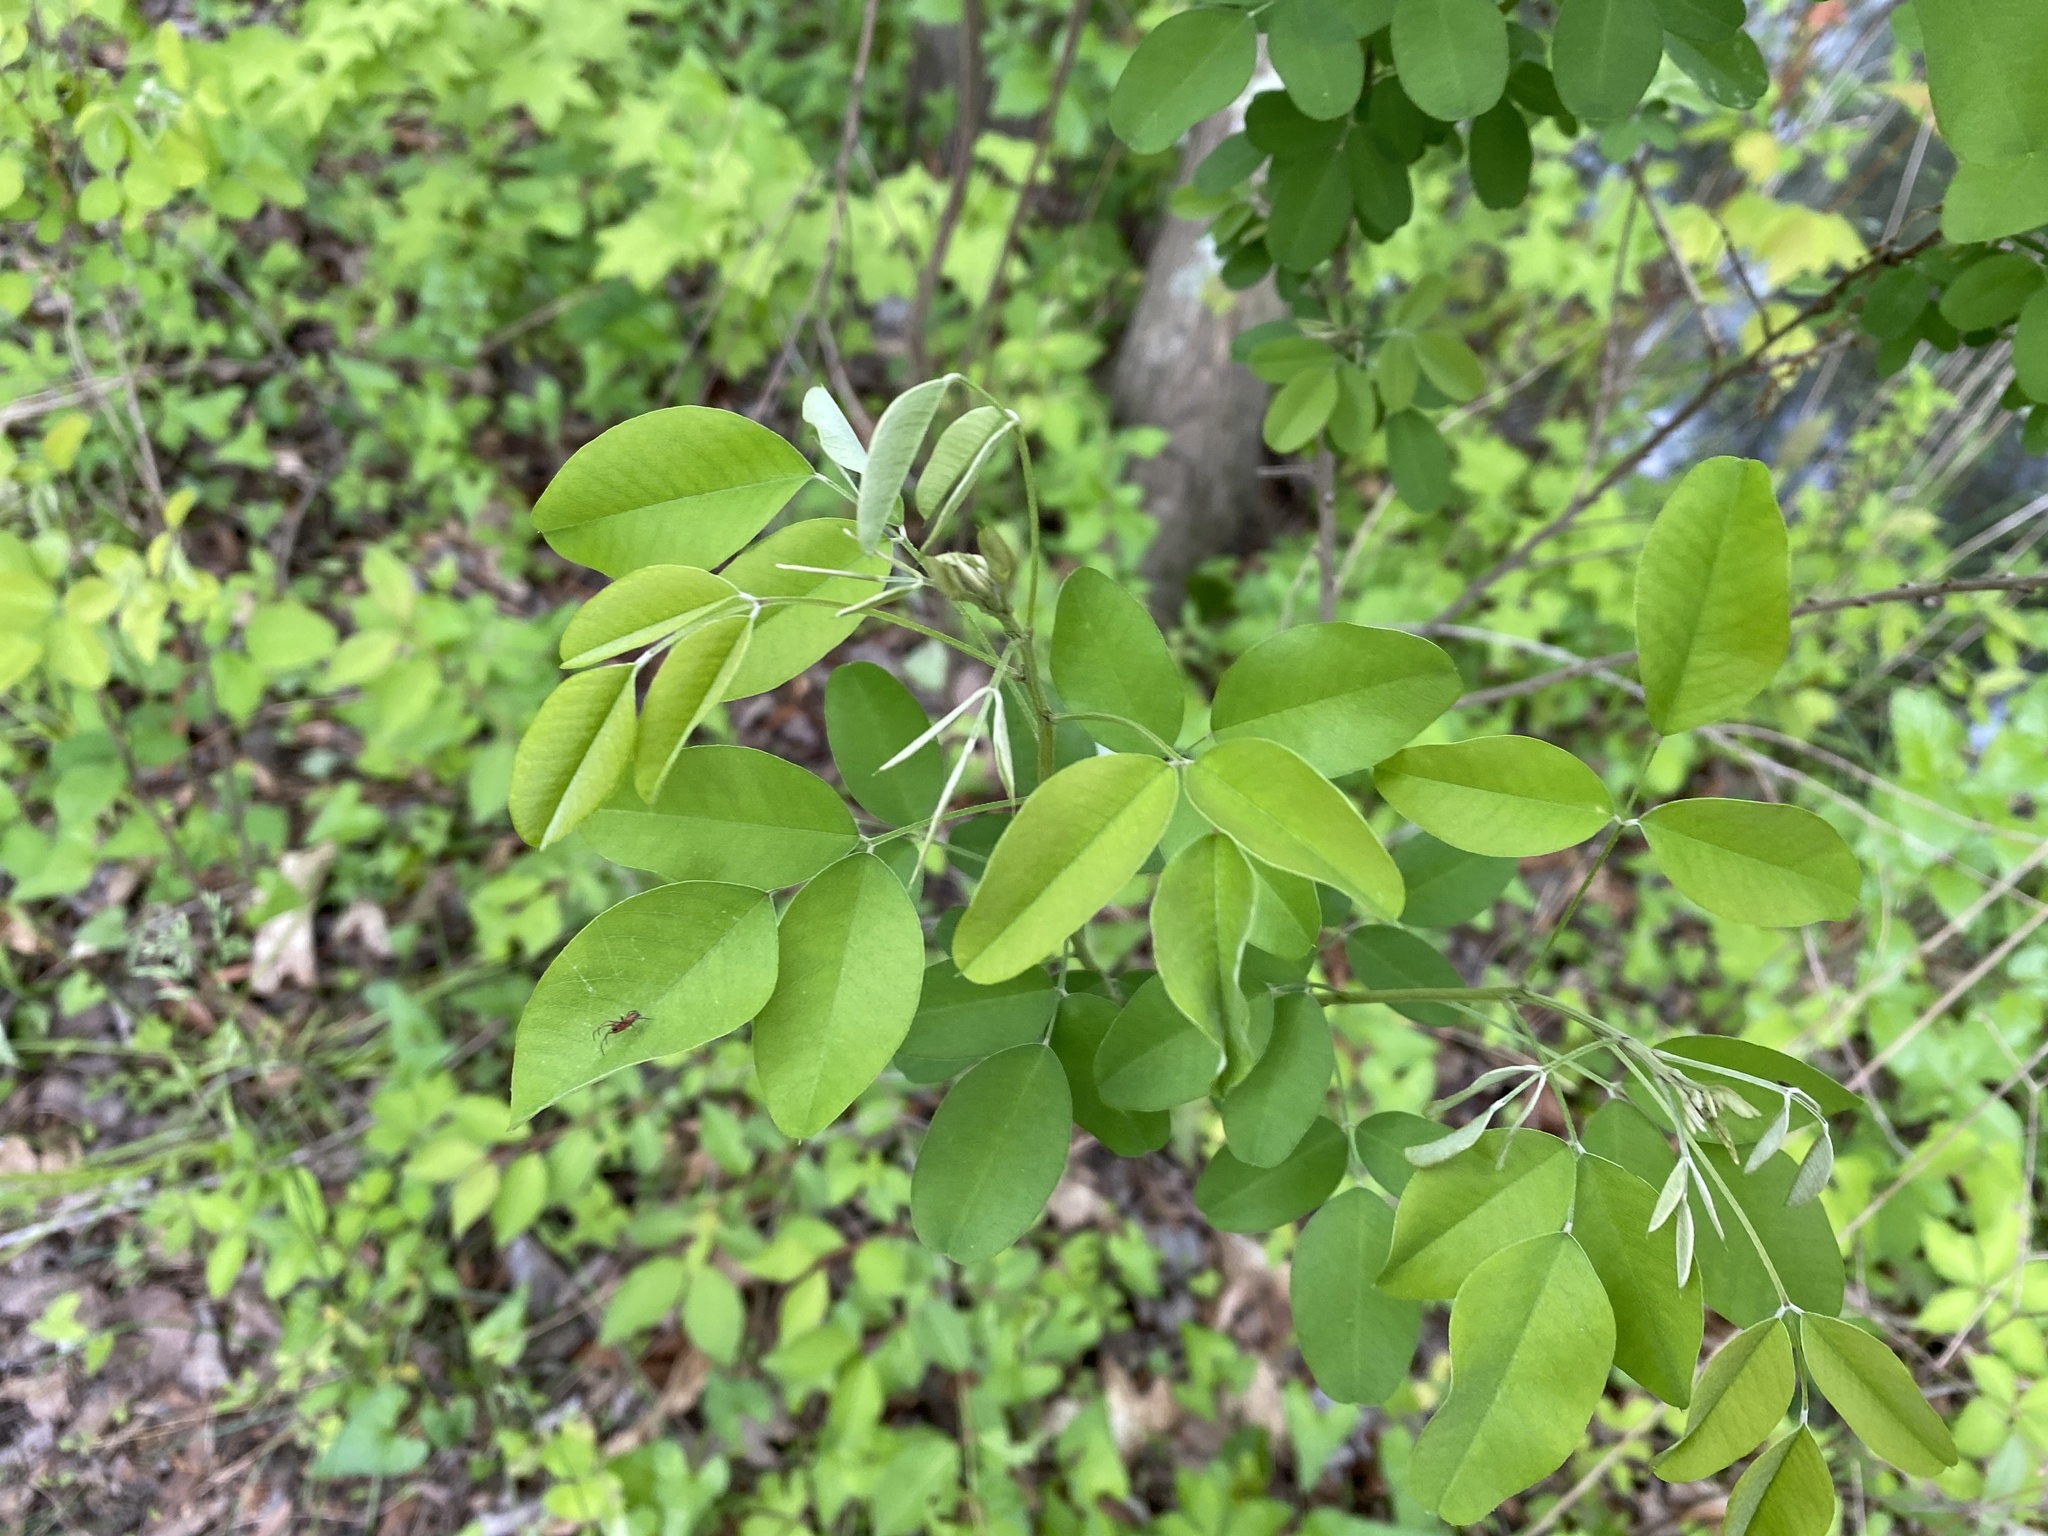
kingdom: Plantae
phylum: Tracheophyta
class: Magnoliopsida
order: Fabales
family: Fabaceae
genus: Lespedeza
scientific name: Lespedeza bicolor
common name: Shrub lespedeza
